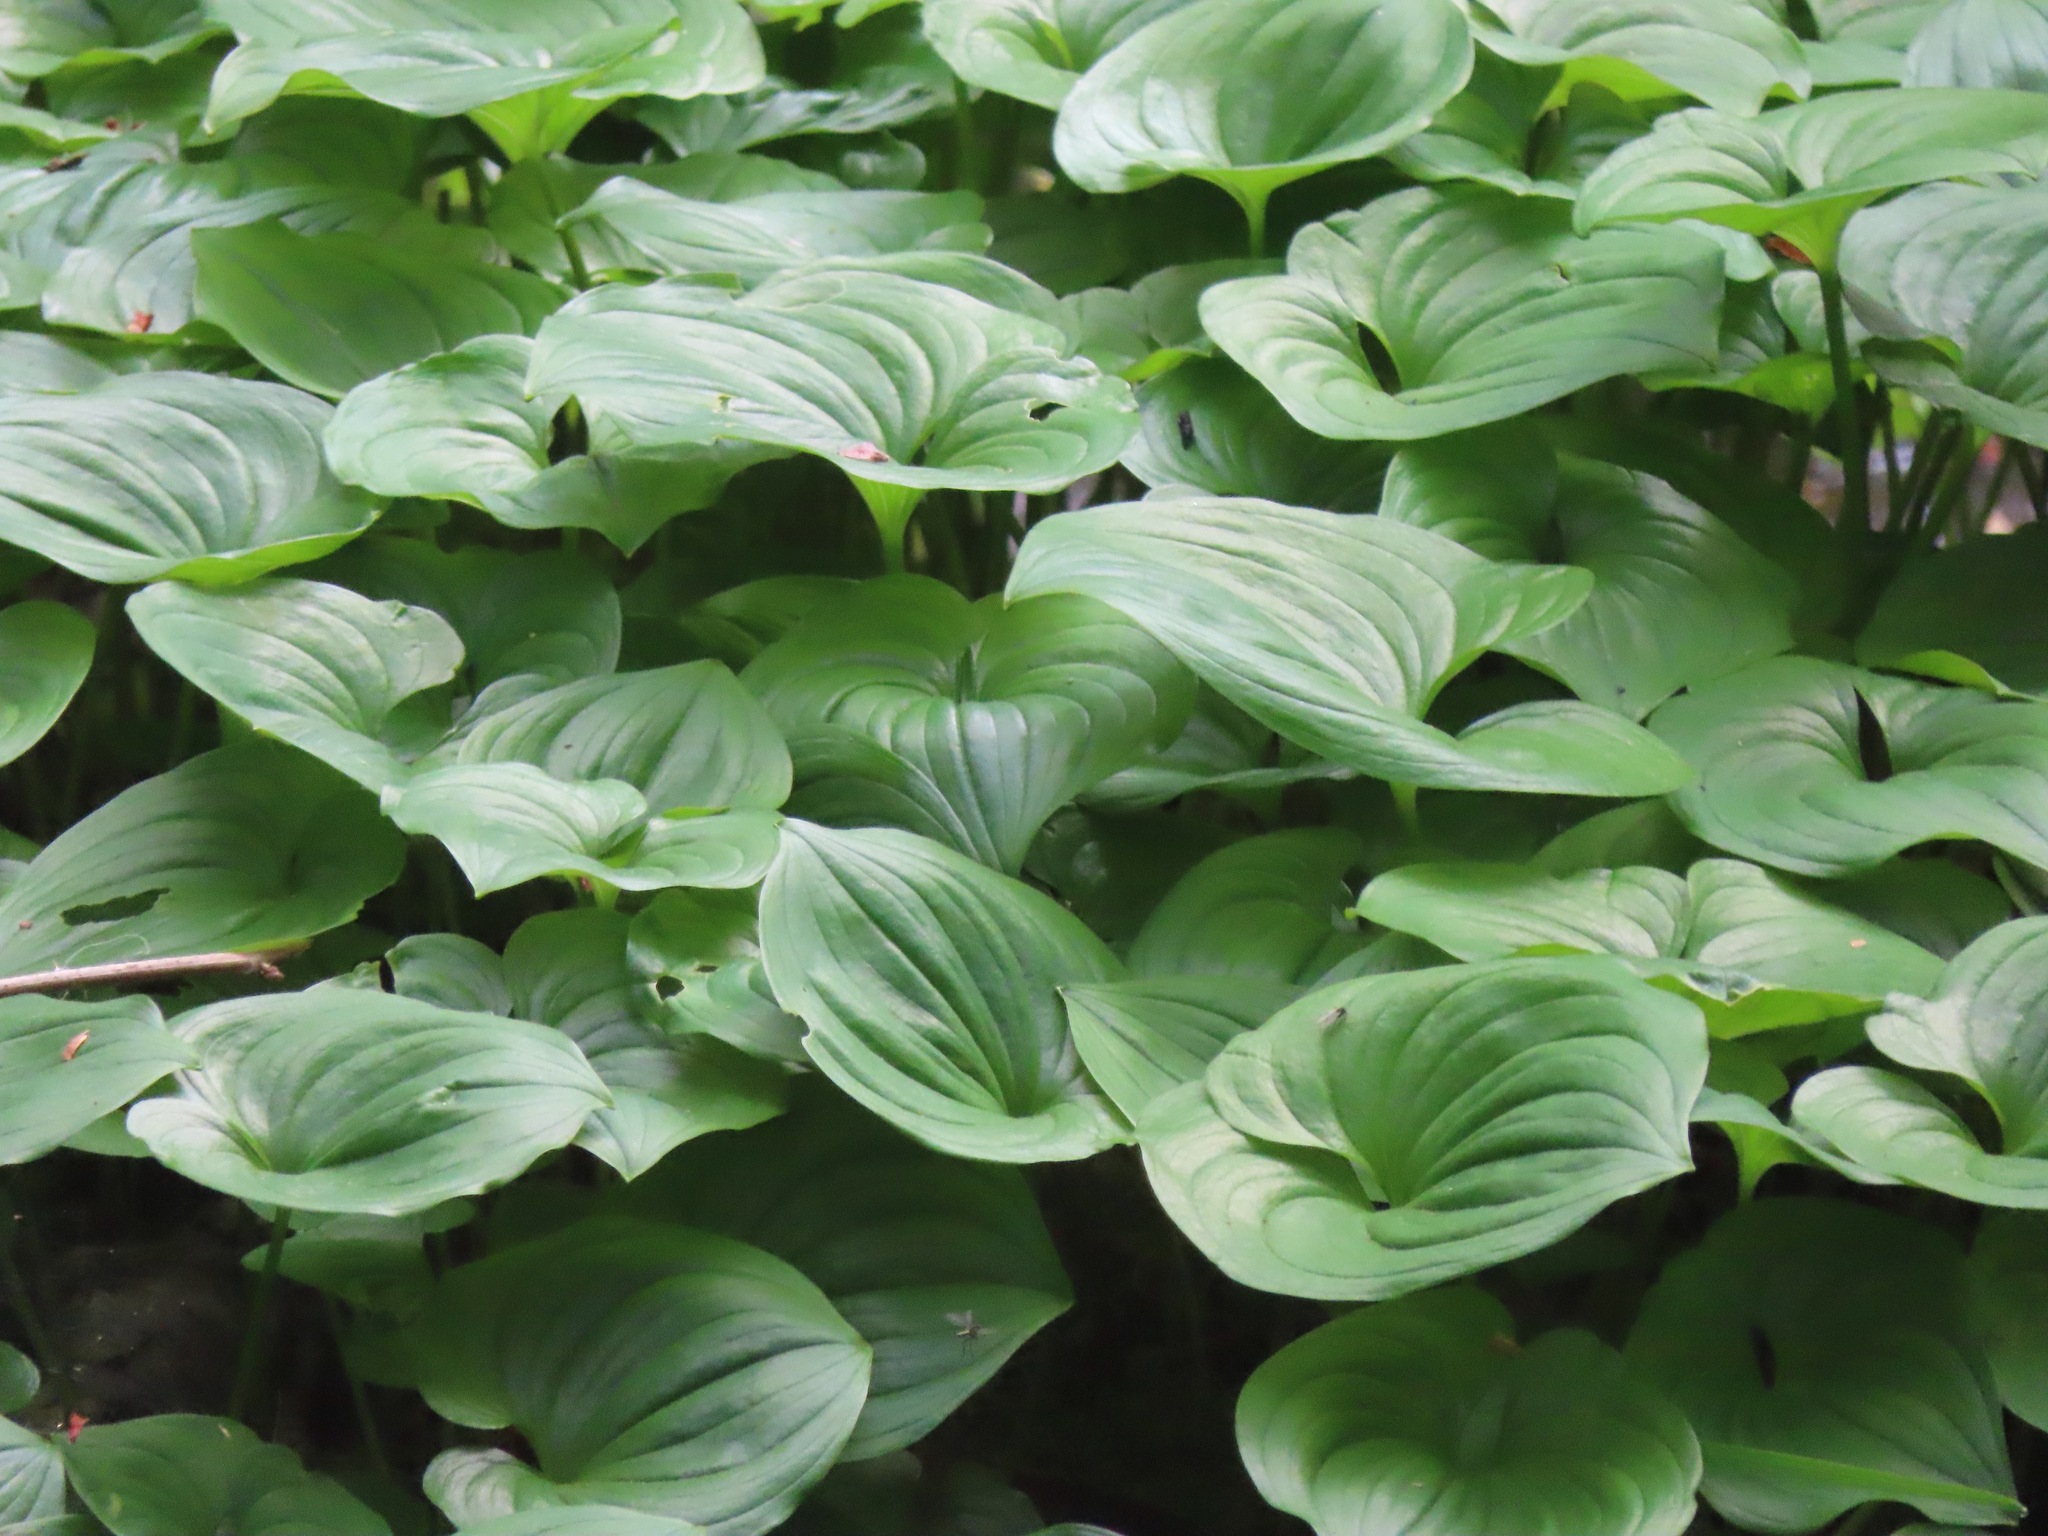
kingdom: Plantae
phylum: Tracheophyta
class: Liliopsida
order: Asparagales
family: Asparagaceae
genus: Maianthemum
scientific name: Maianthemum dilatatum
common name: False lily-of-the-valley
